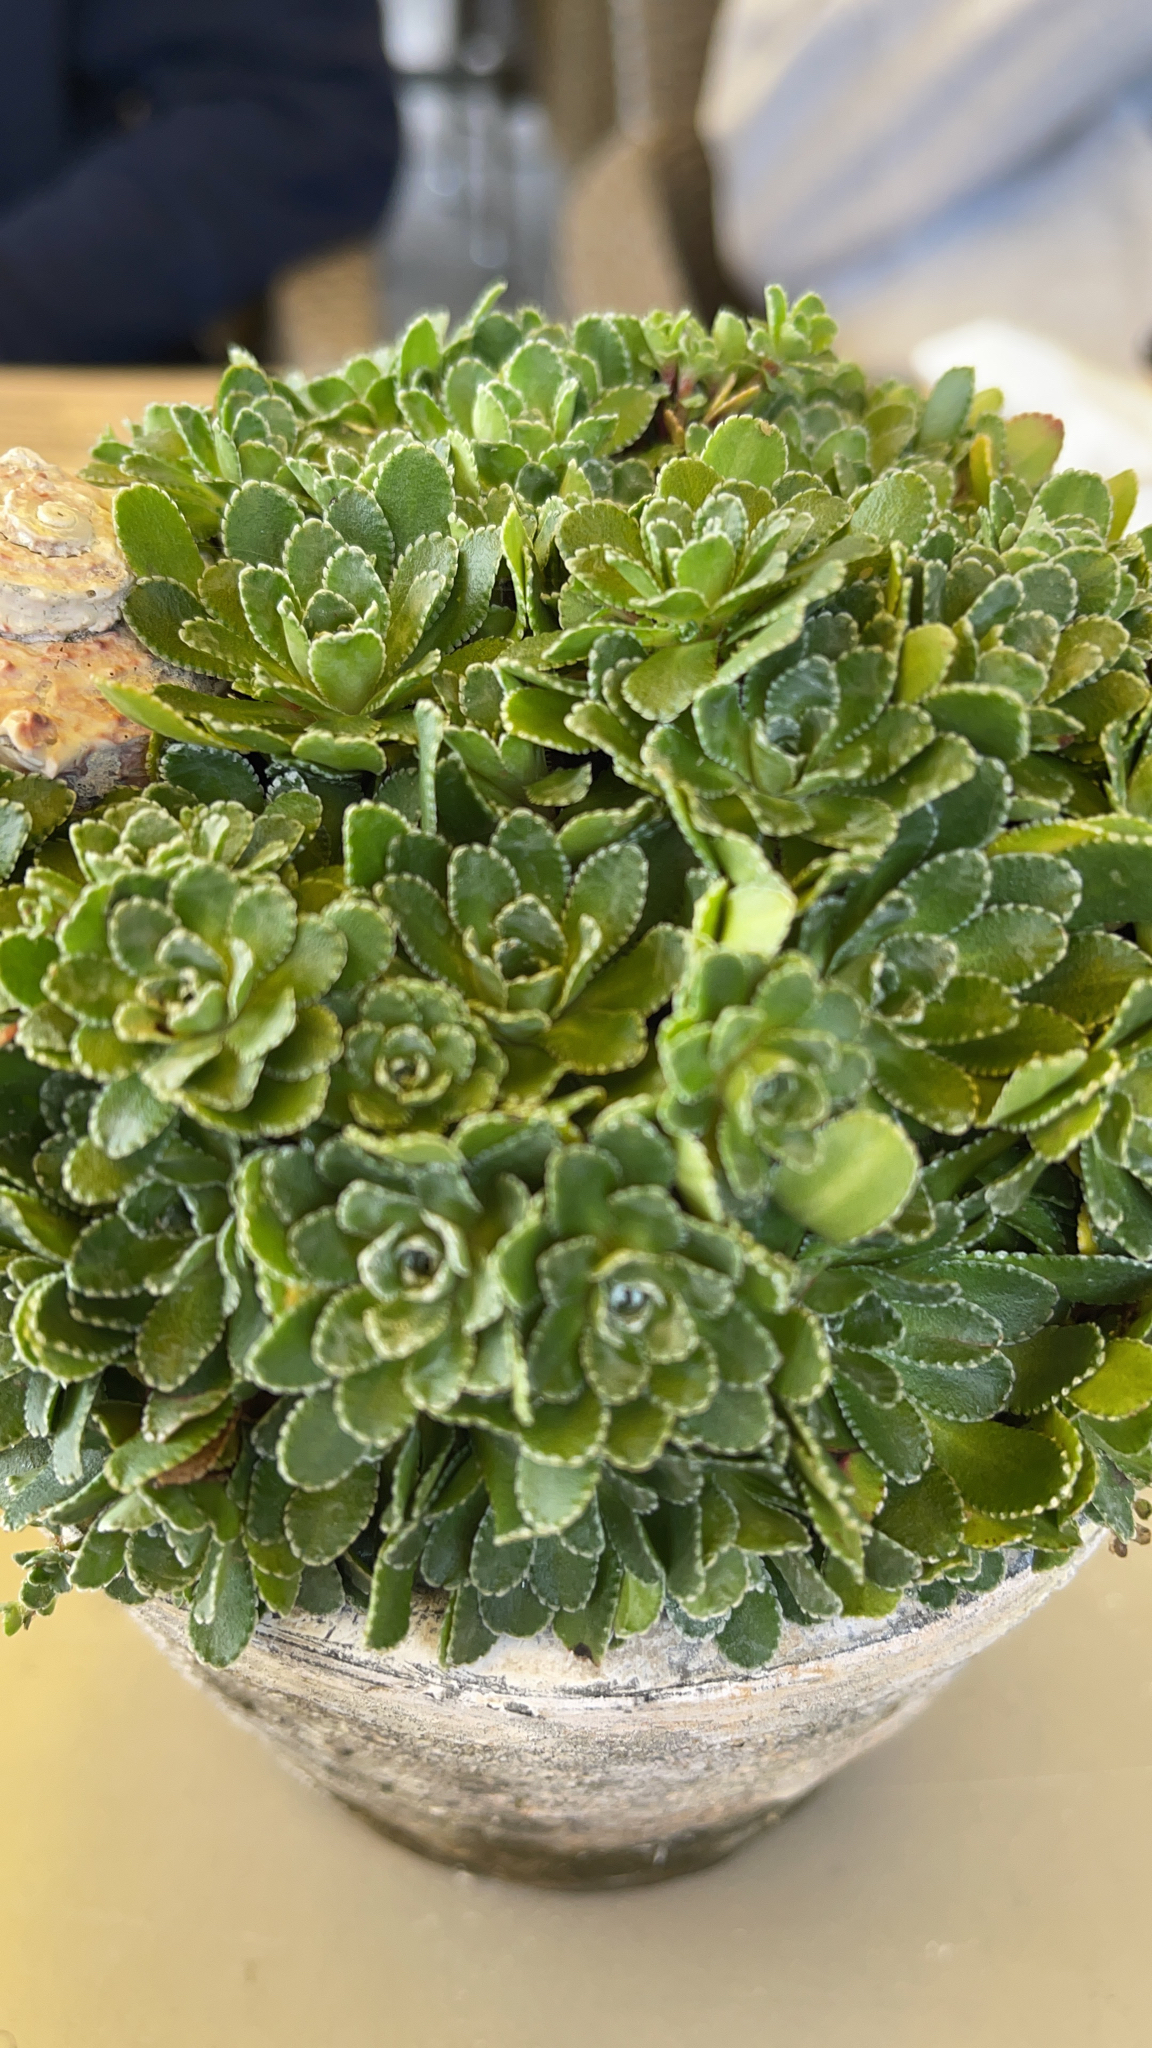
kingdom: Plantae
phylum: Tracheophyta
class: Magnoliopsida
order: Saxifragales
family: Saxifragaceae
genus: Saxifraga
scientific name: Saxifraga paniculata
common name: Livelong saxifrage
